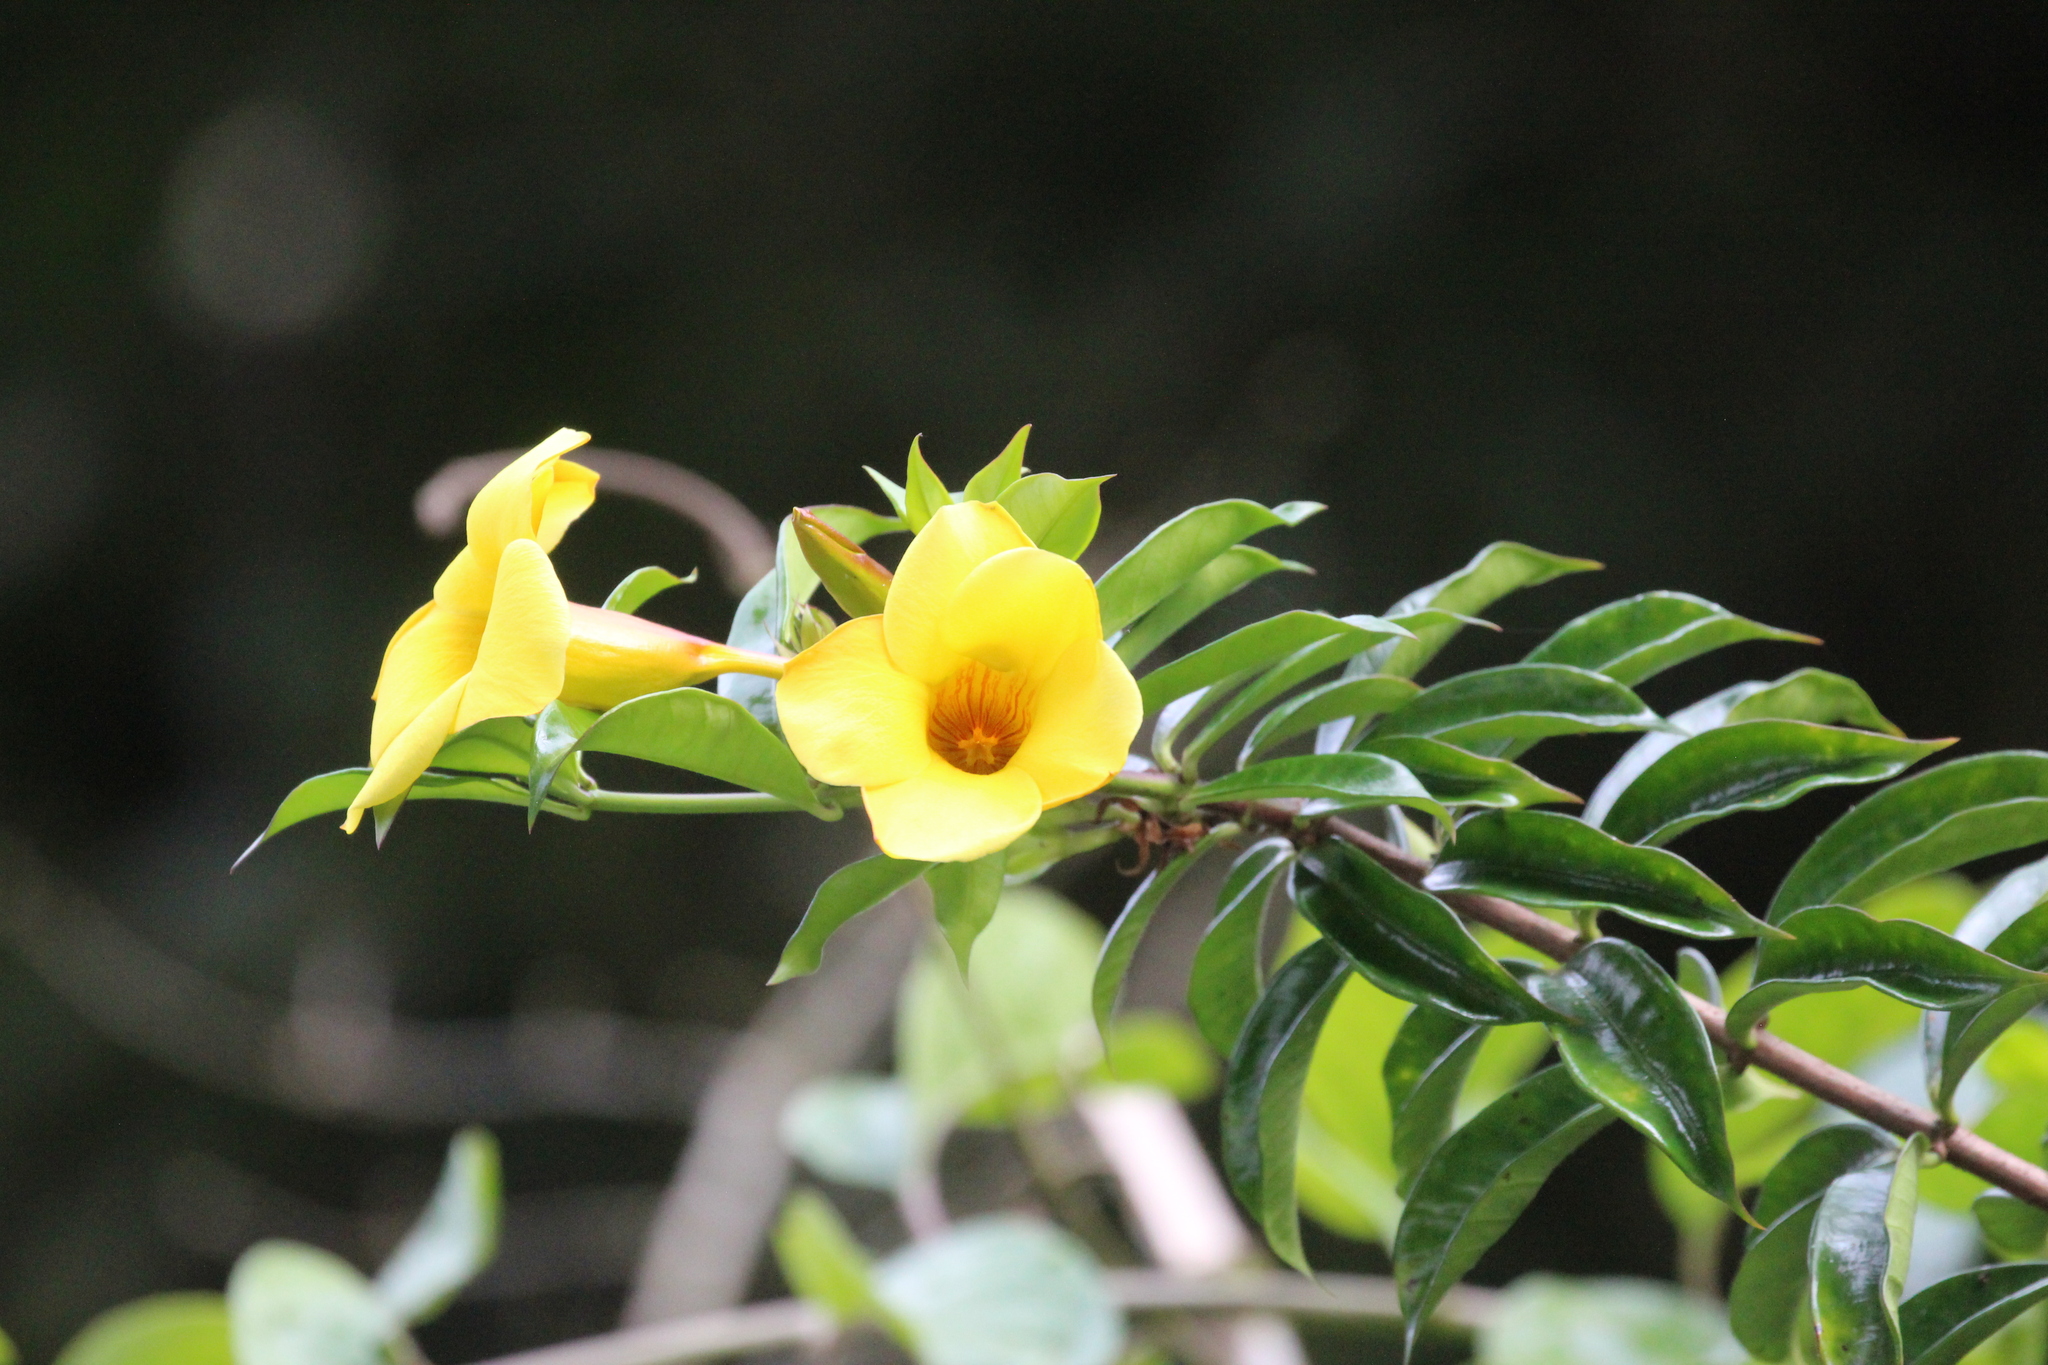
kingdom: Plantae
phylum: Tracheophyta
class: Magnoliopsida
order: Gentianales
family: Apocynaceae
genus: Allamanda
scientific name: Allamanda cathartica
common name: Golden trumpet
